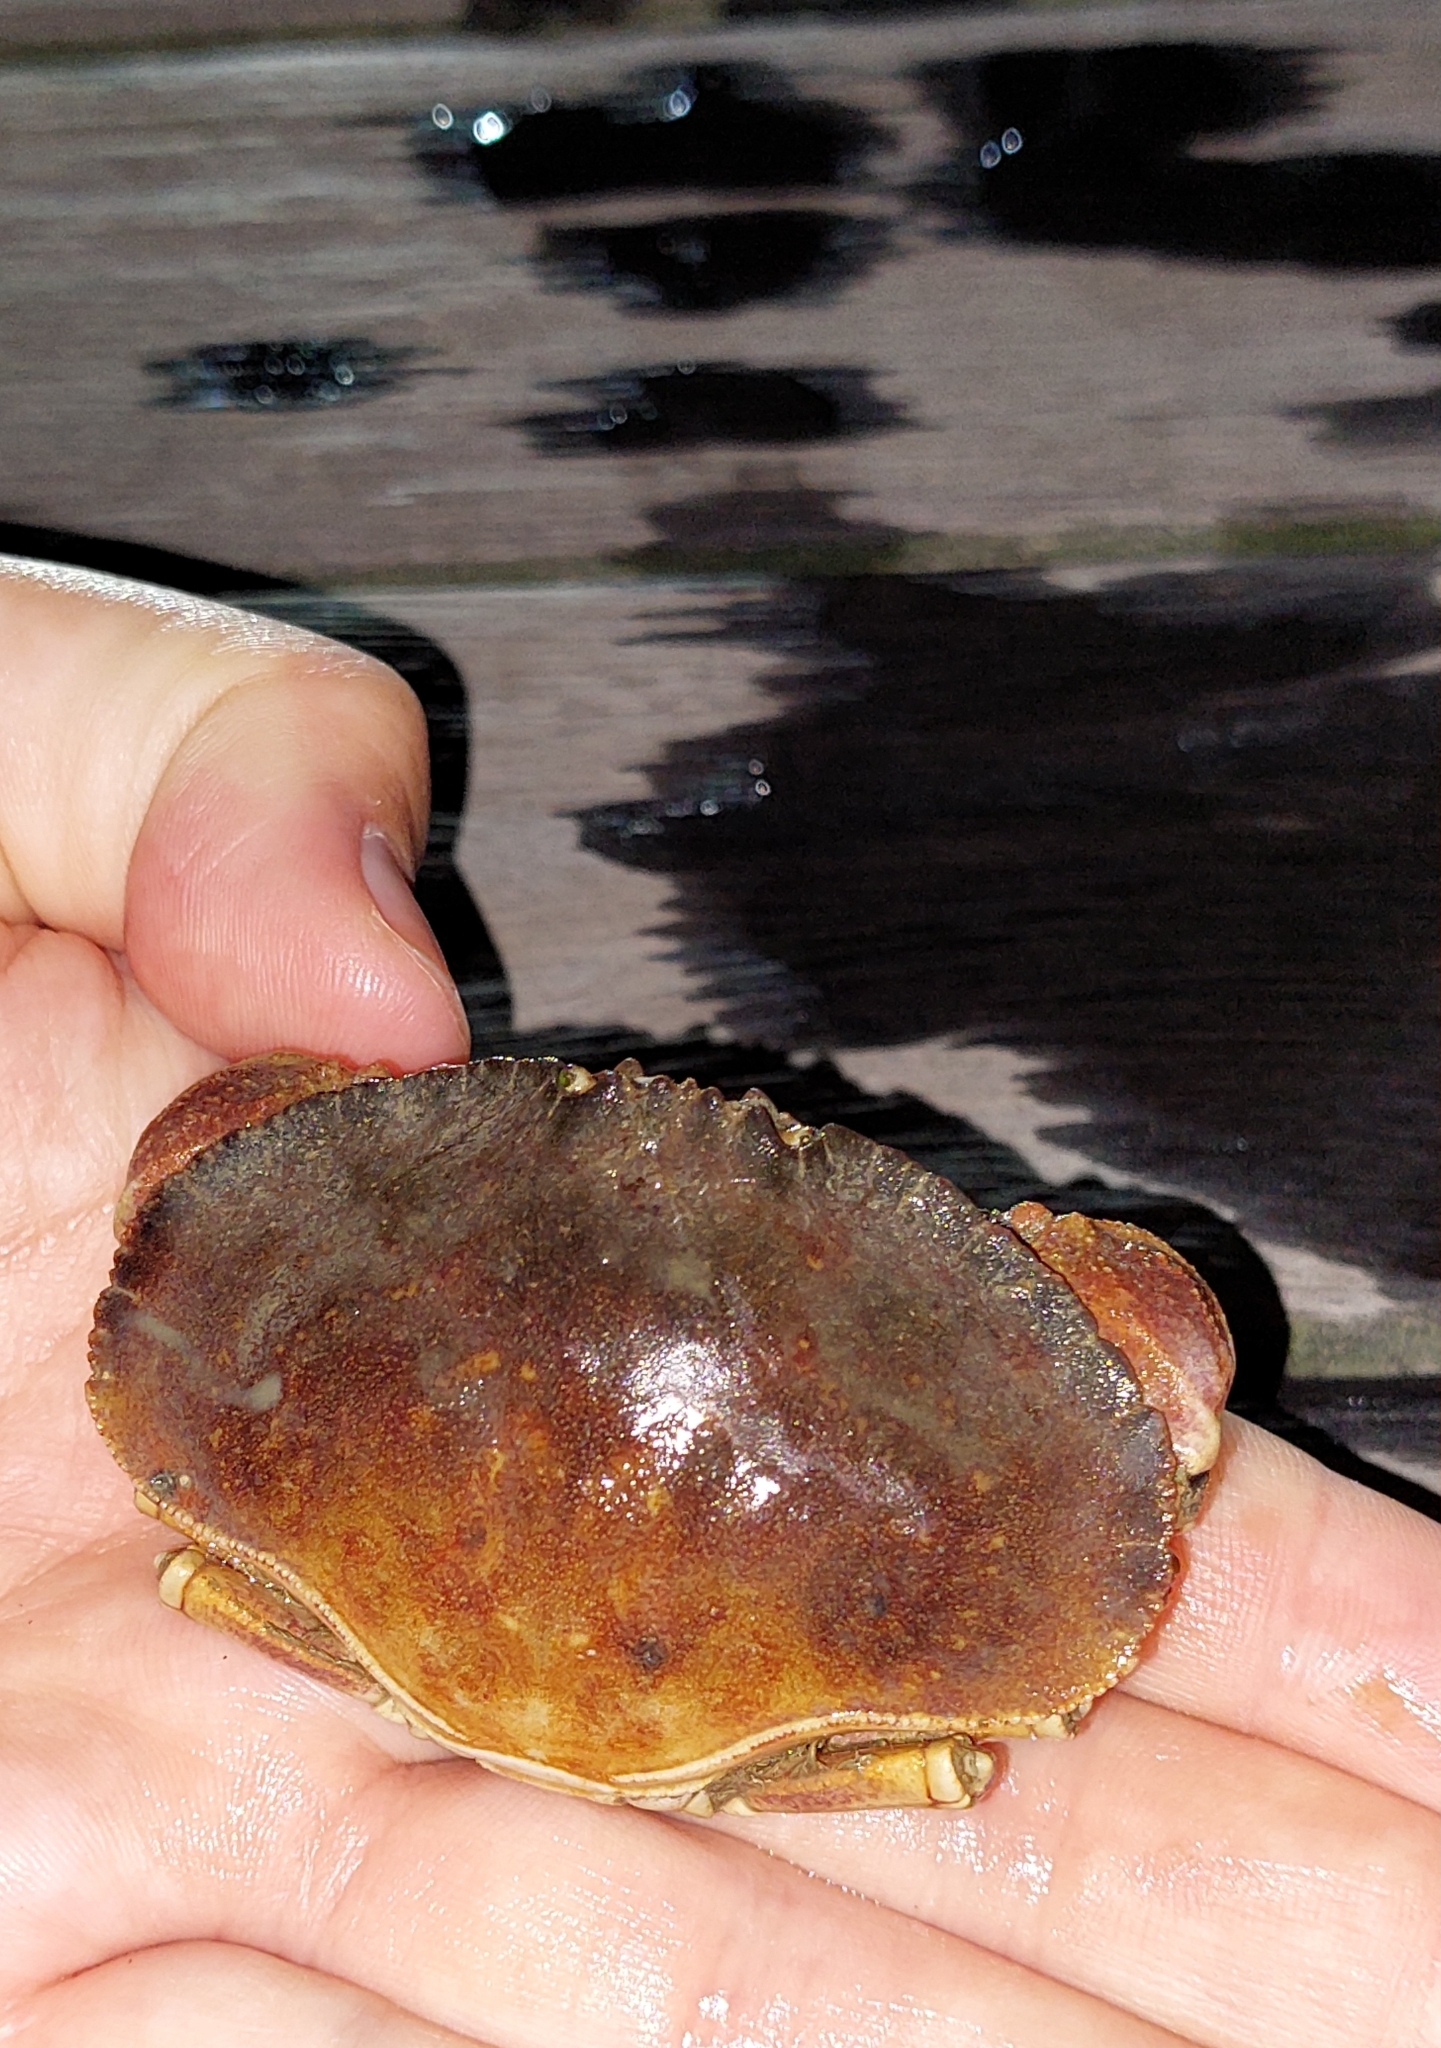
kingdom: Animalia
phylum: Arthropoda
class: Malacostraca
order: Decapoda
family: Cancridae
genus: Metacarcinus
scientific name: Metacarcinus novaezelandiae
